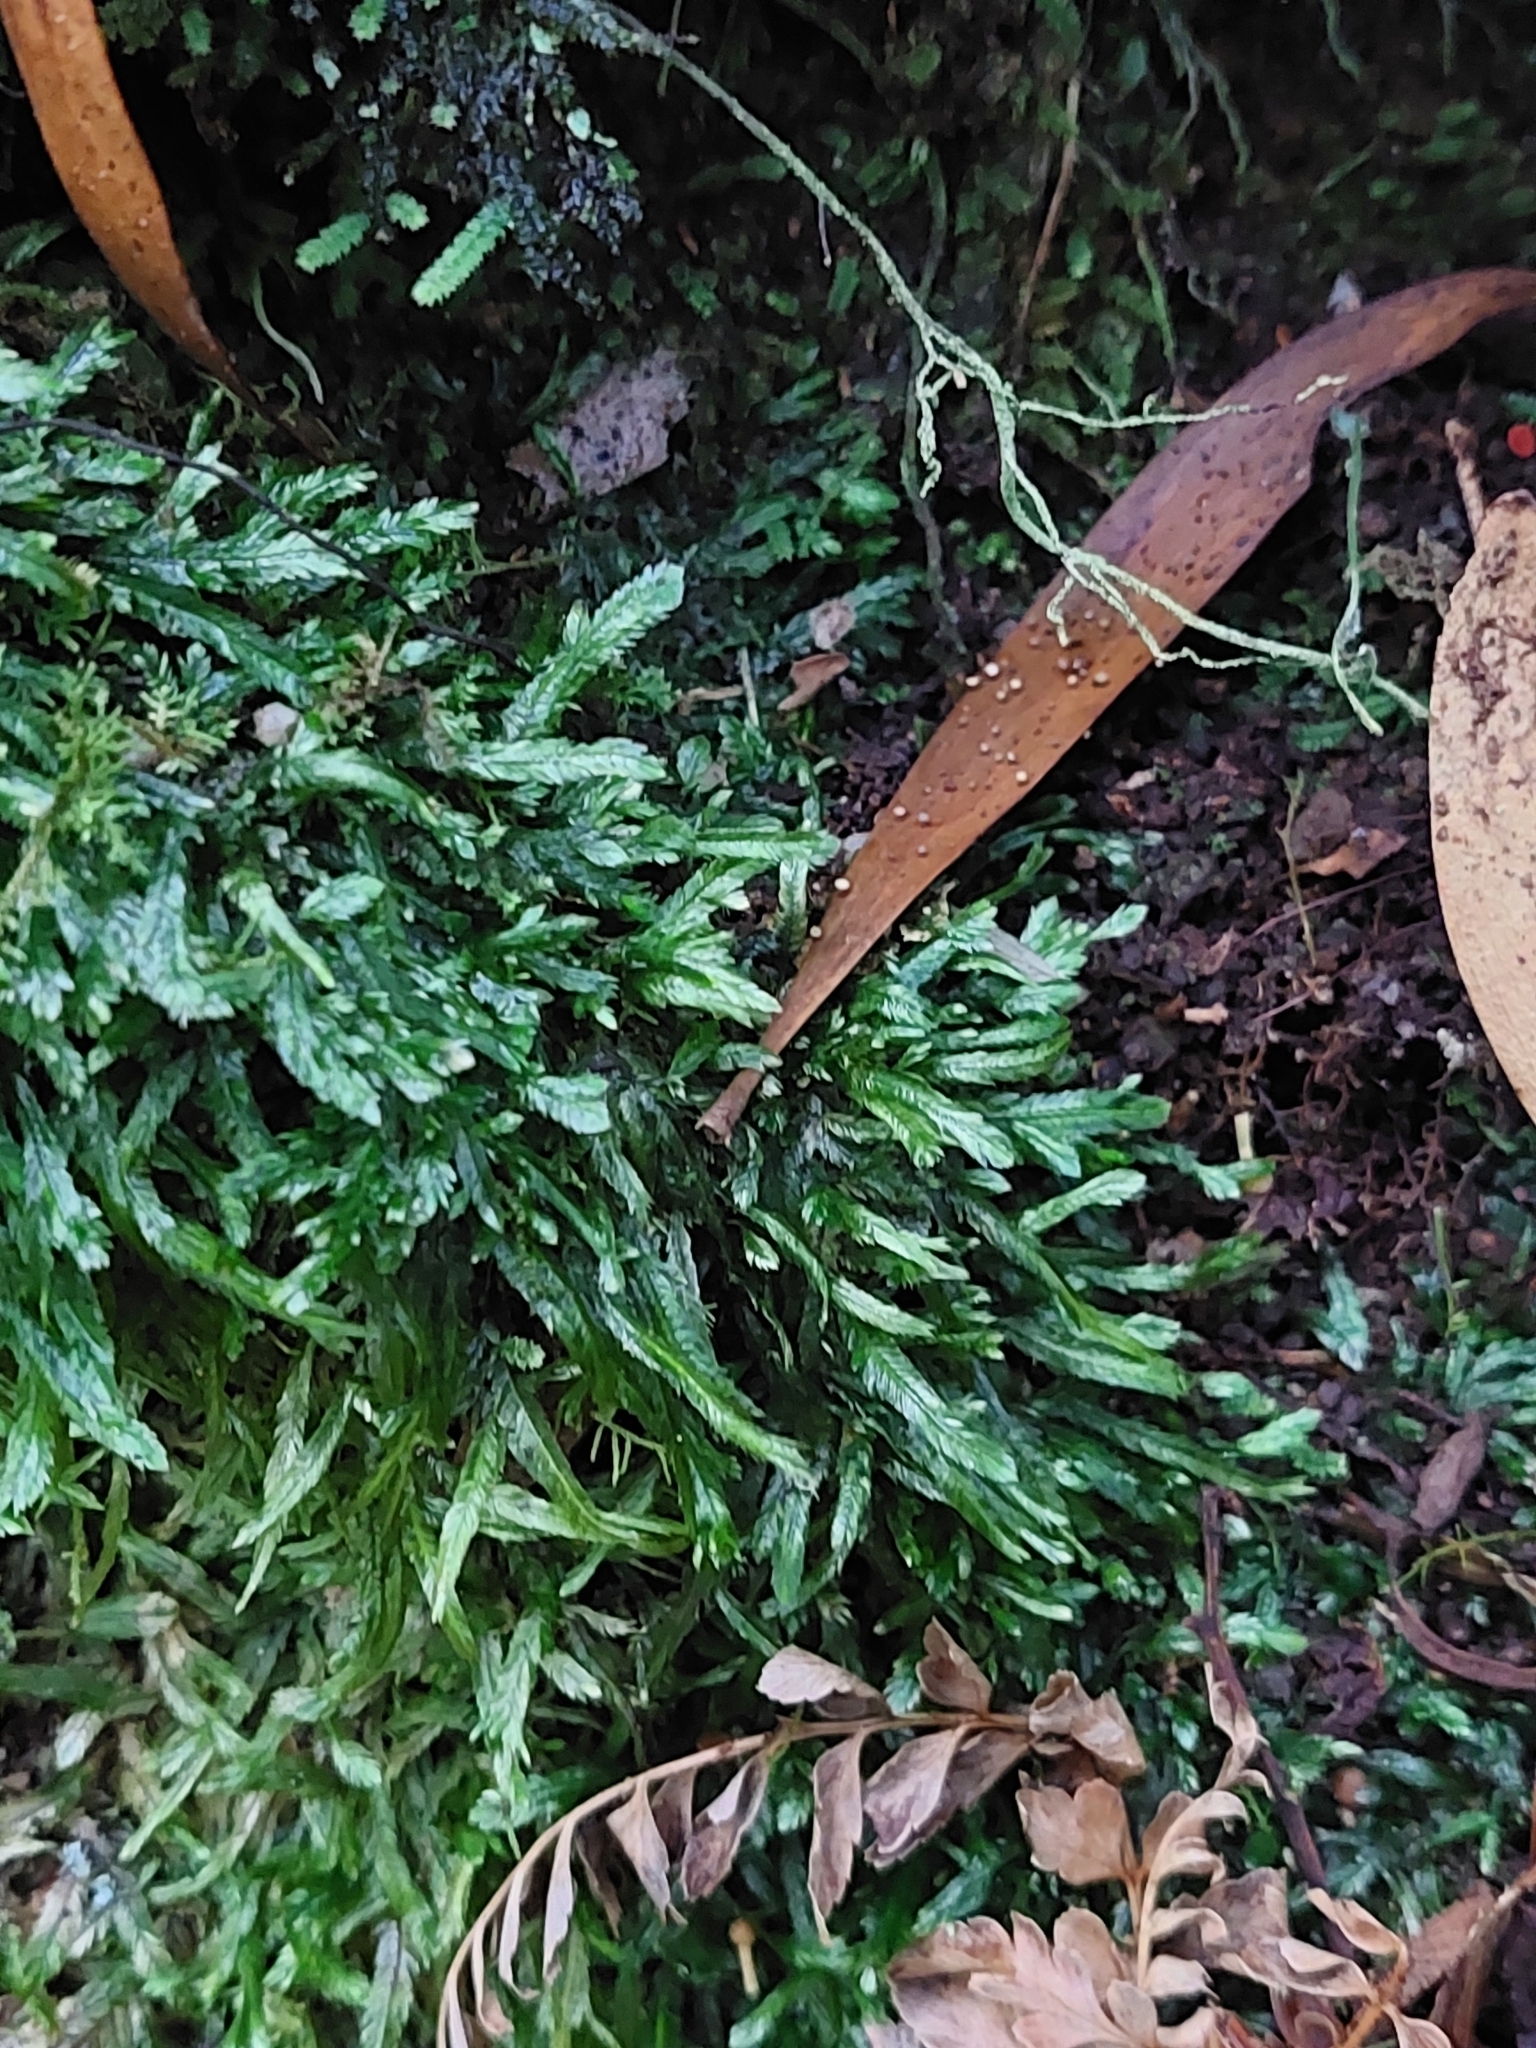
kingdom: Plantae
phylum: Bryophyta
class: Bryopsida
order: Hypnales
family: Catagoniaceae
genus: Catagonium
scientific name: Catagonium nitens
